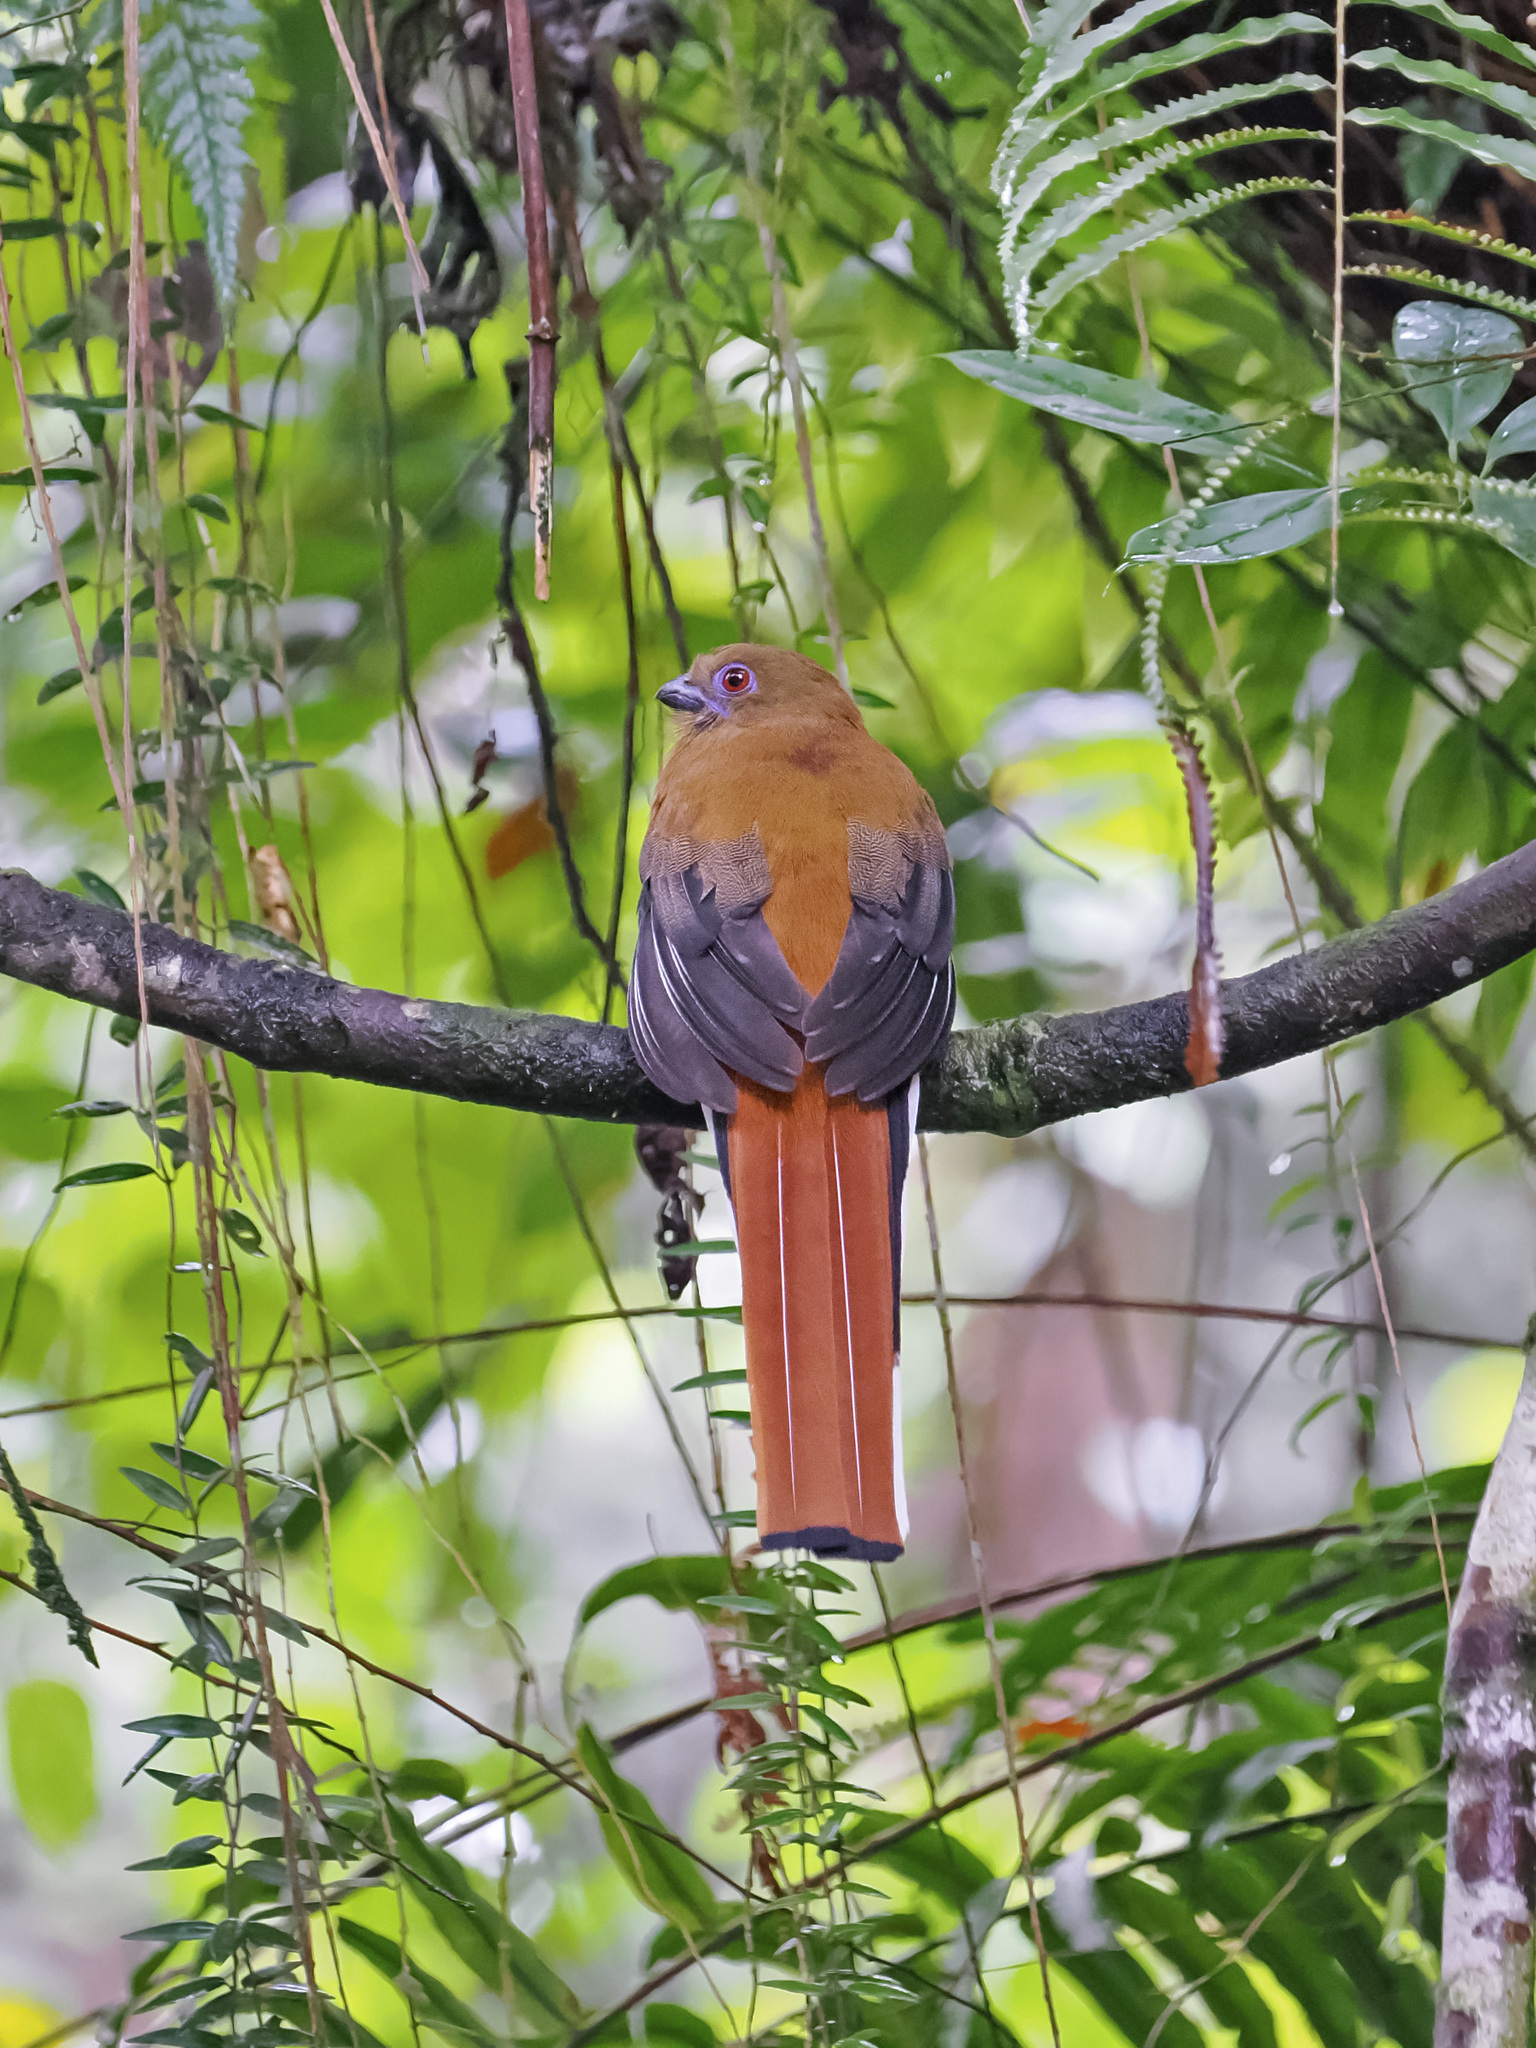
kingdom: Animalia
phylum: Chordata
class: Aves
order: Trogoniformes
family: Trogonidae
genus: Harpactes
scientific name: Harpactes erythrocephalus
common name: Red-headed trogon
